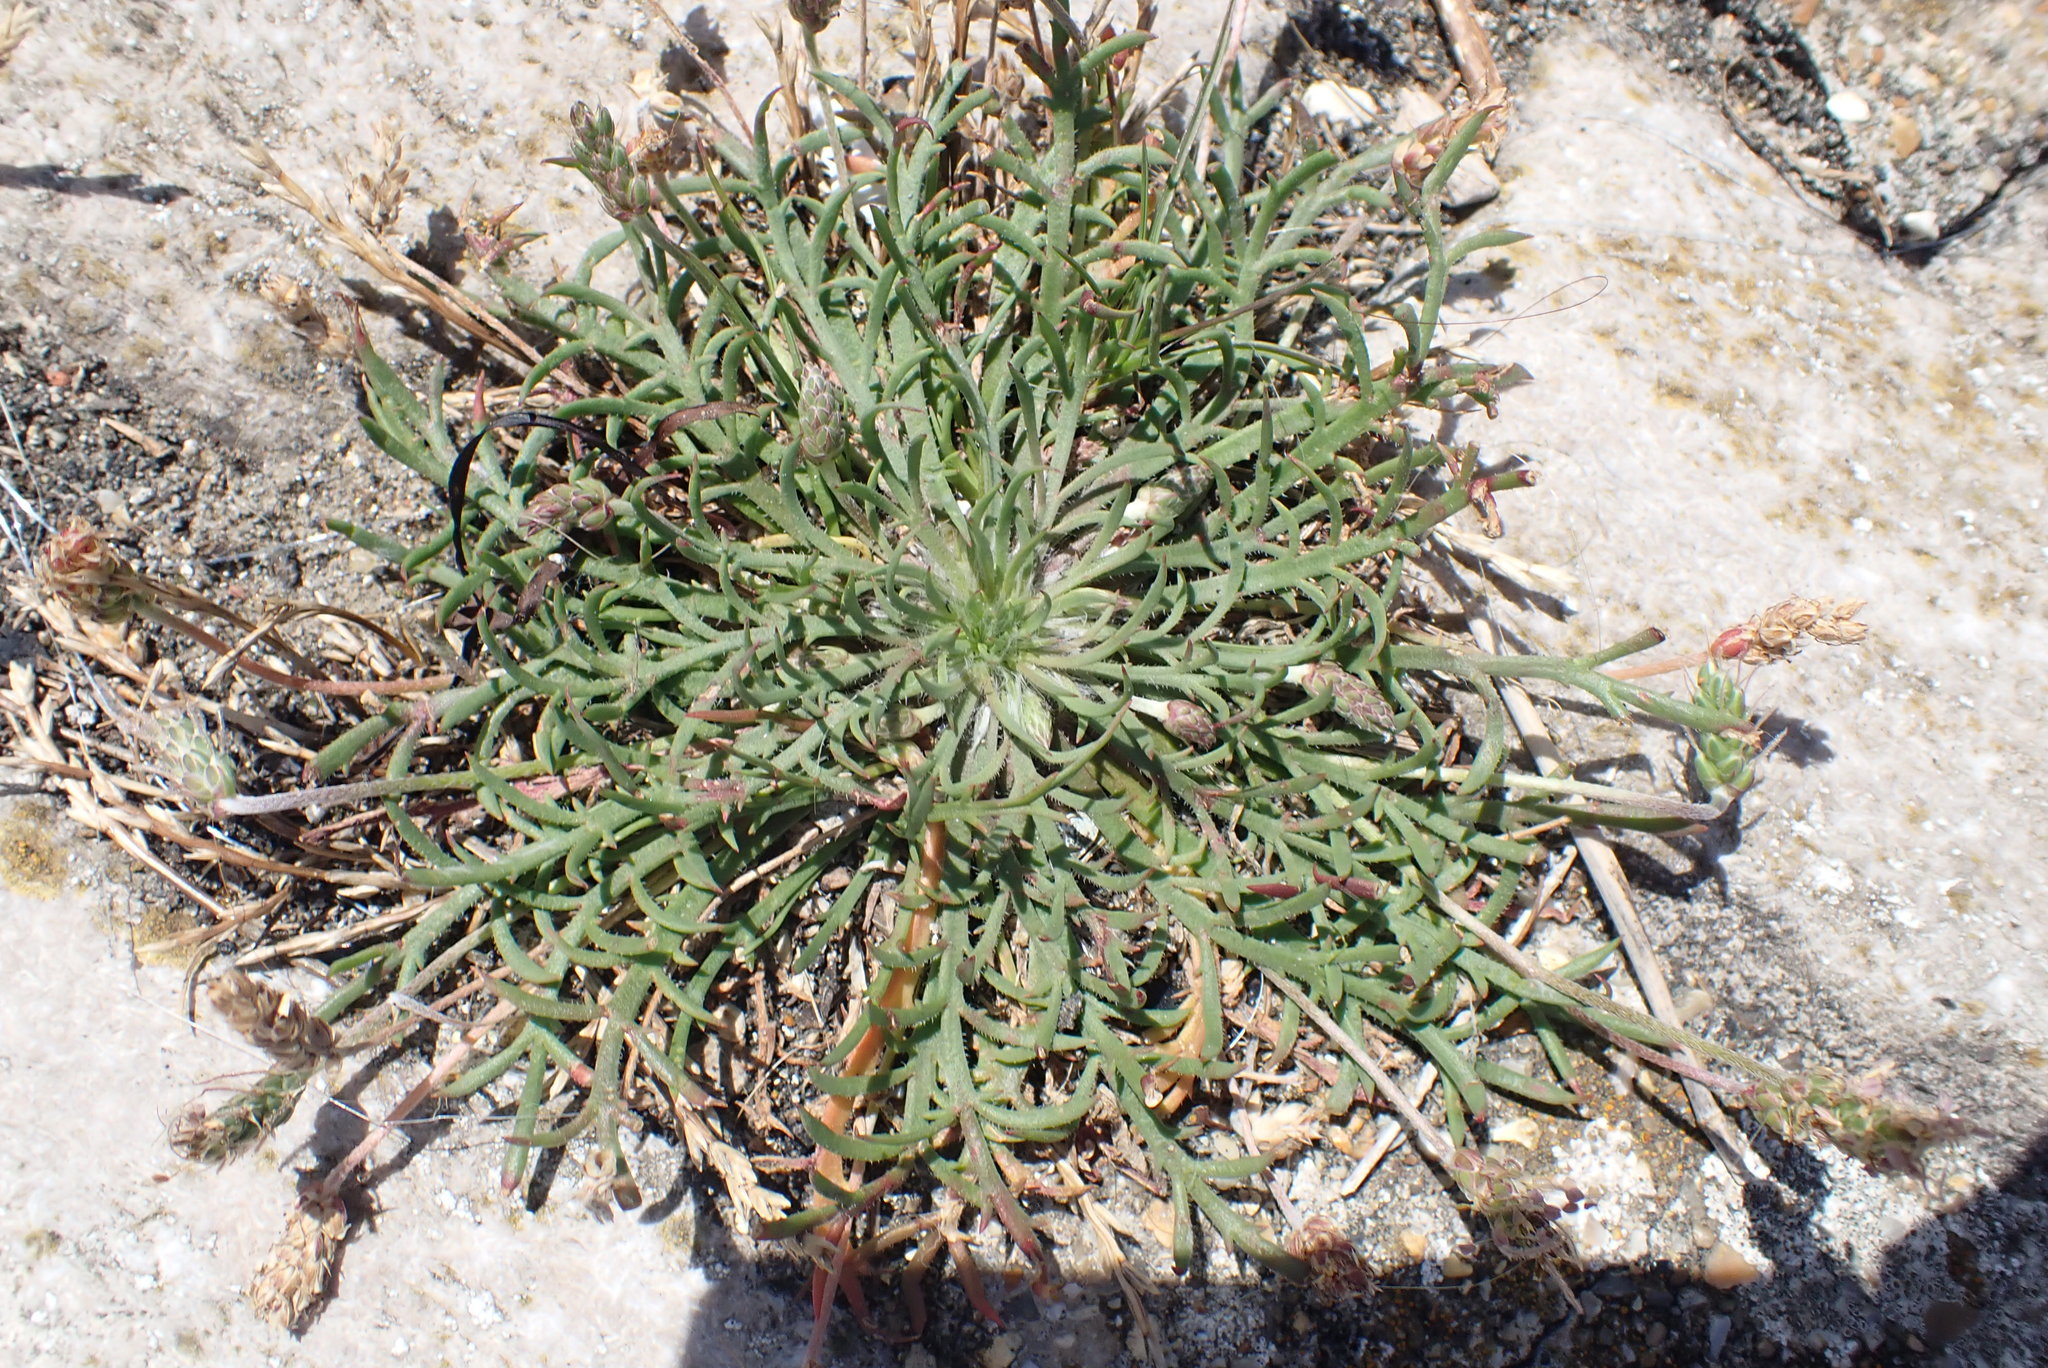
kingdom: Plantae
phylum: Tracheophyta
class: Magnoliopsida
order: Lamiales
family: Plantaginaceae
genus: Plantago
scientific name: Plantago coronopus
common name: Buck's-horn plantain
